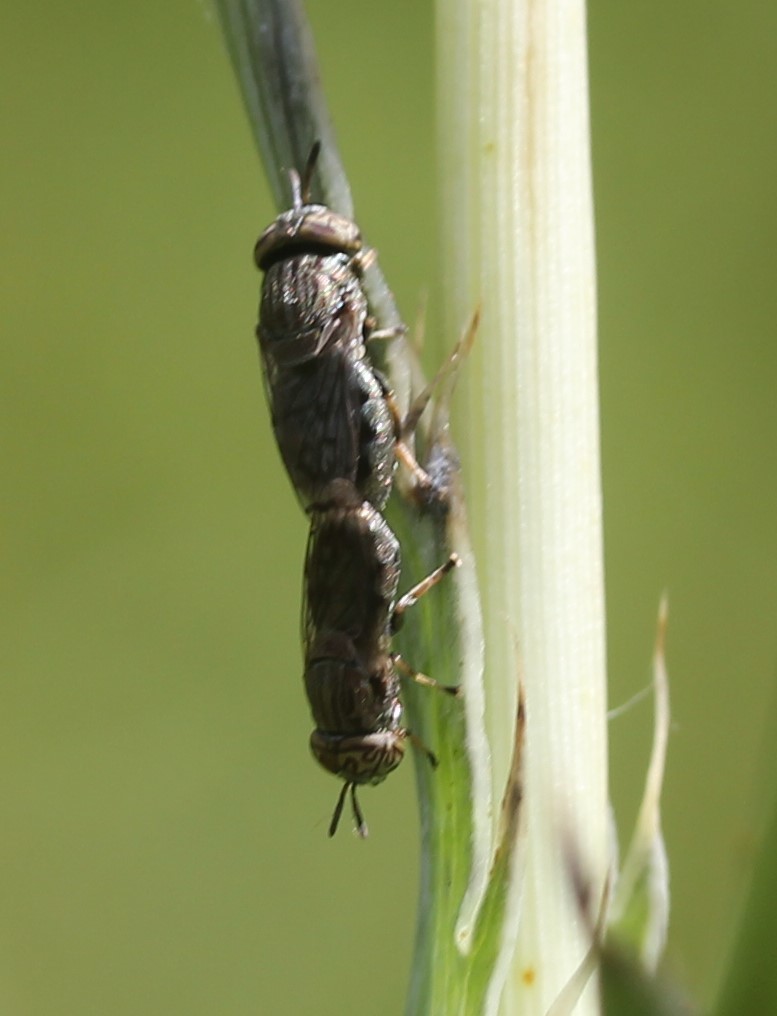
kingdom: Animalia
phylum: Arthropoda
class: Insecta
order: Diptera
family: Syrphidae
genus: Orthonevra
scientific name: Orthonevra nitida
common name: Wavy mucksucker
